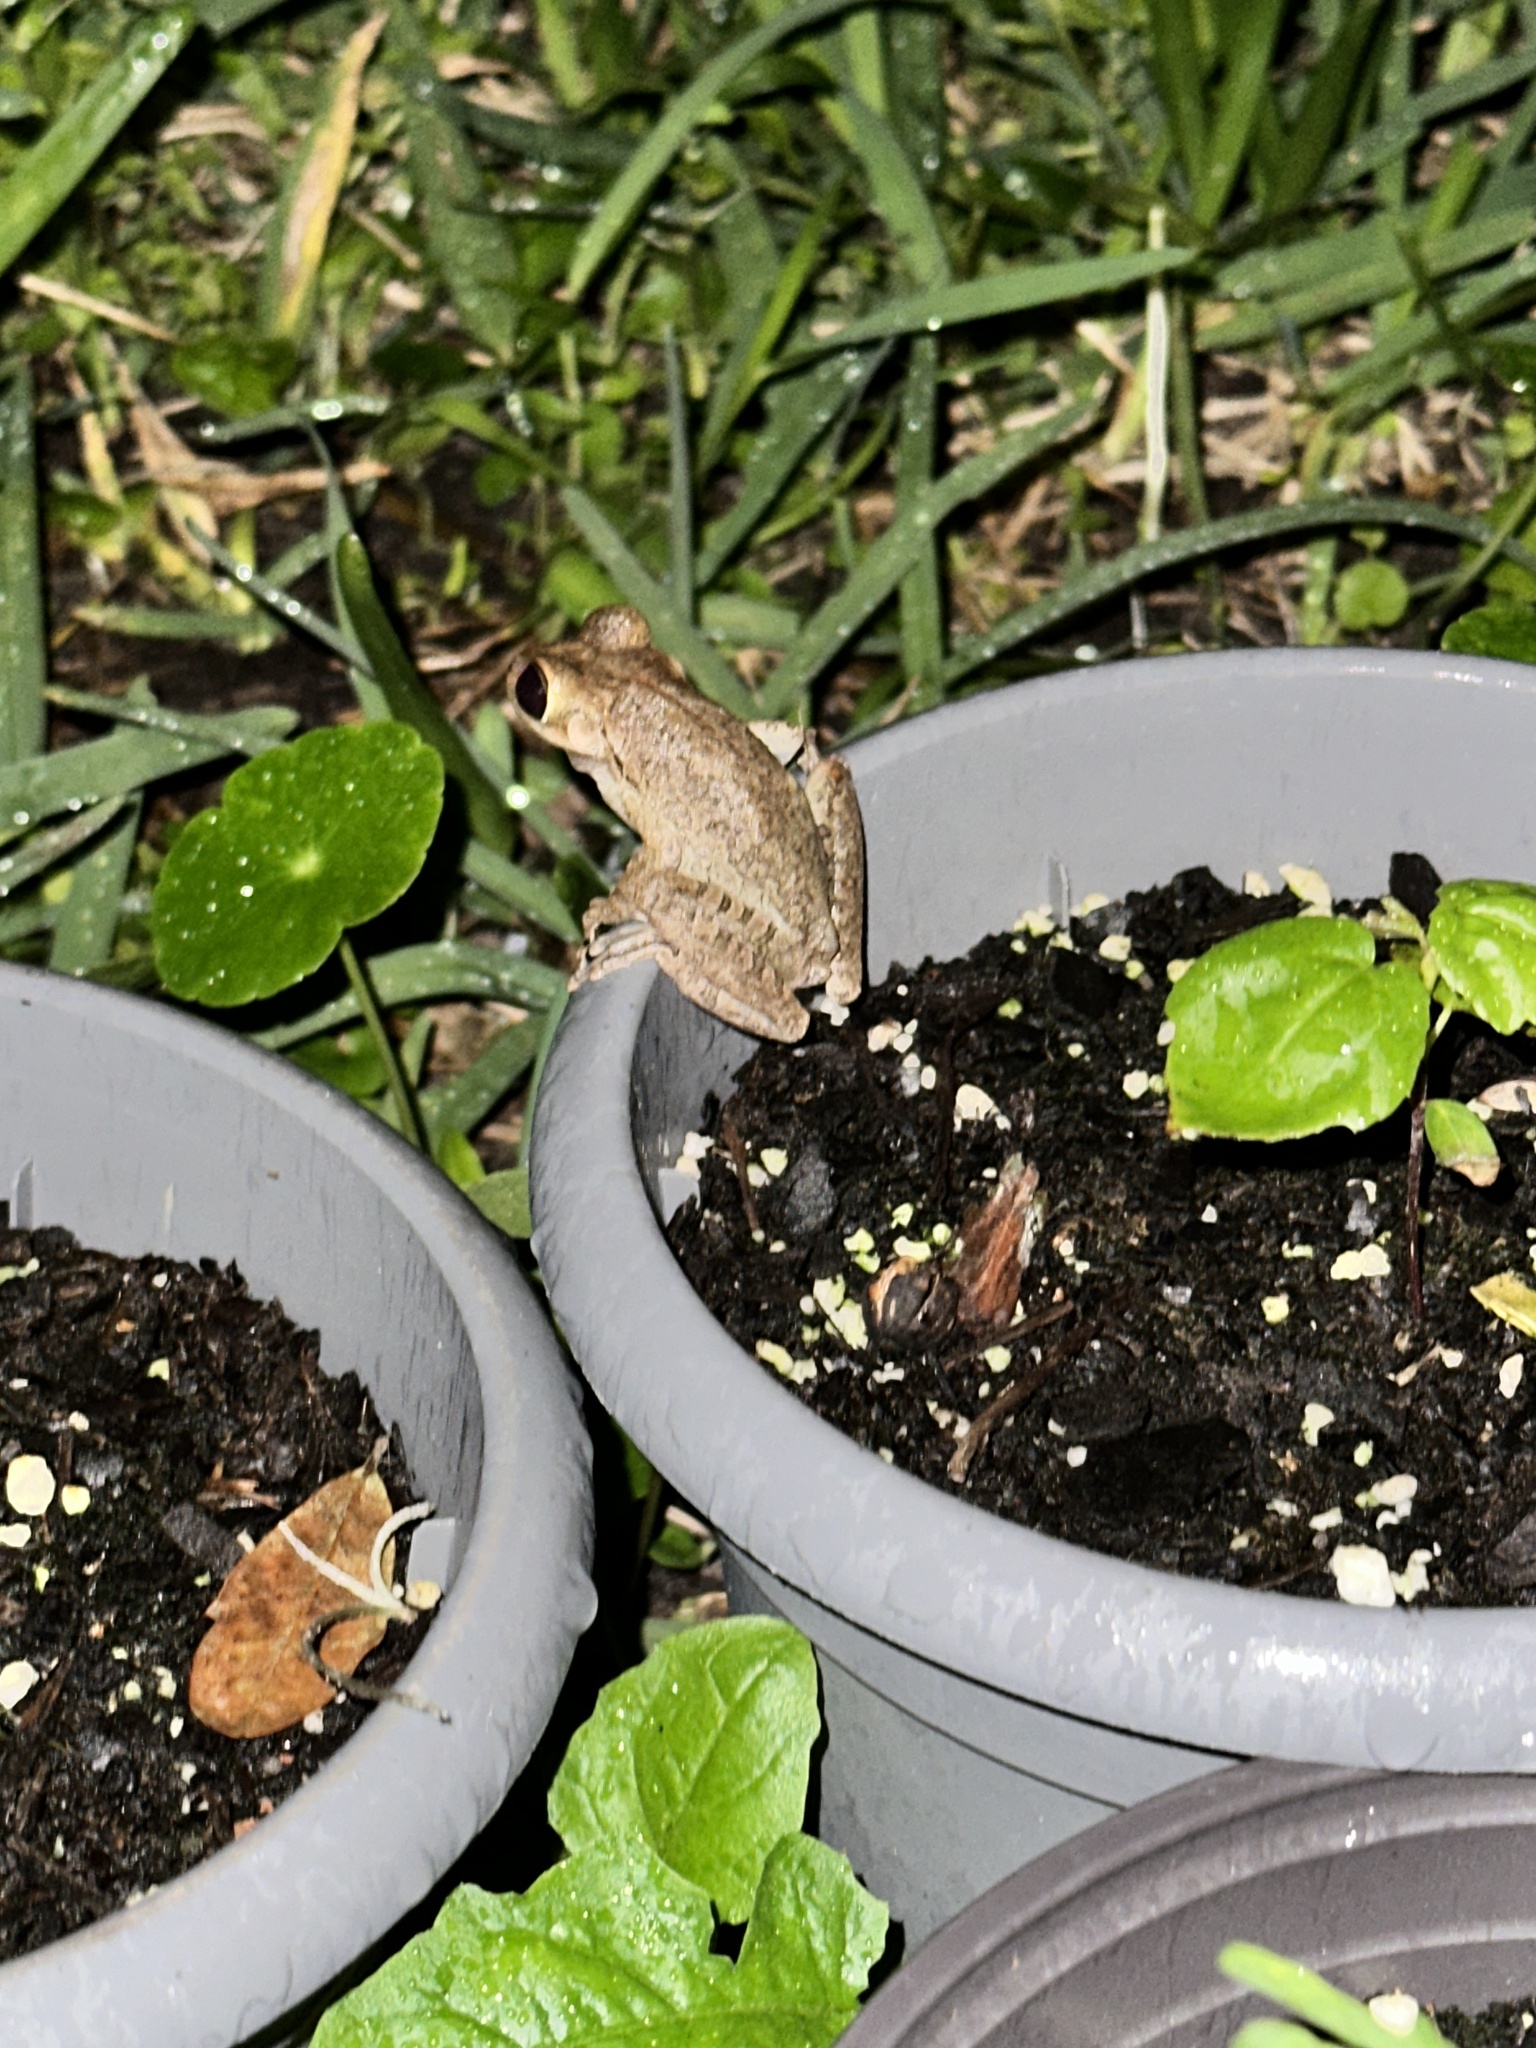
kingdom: Animalia
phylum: Chordata
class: Amphibia
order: Anura
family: Hylidae
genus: Osteopilus
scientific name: Osteopilus septentrionalis
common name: Cuban treefrog
